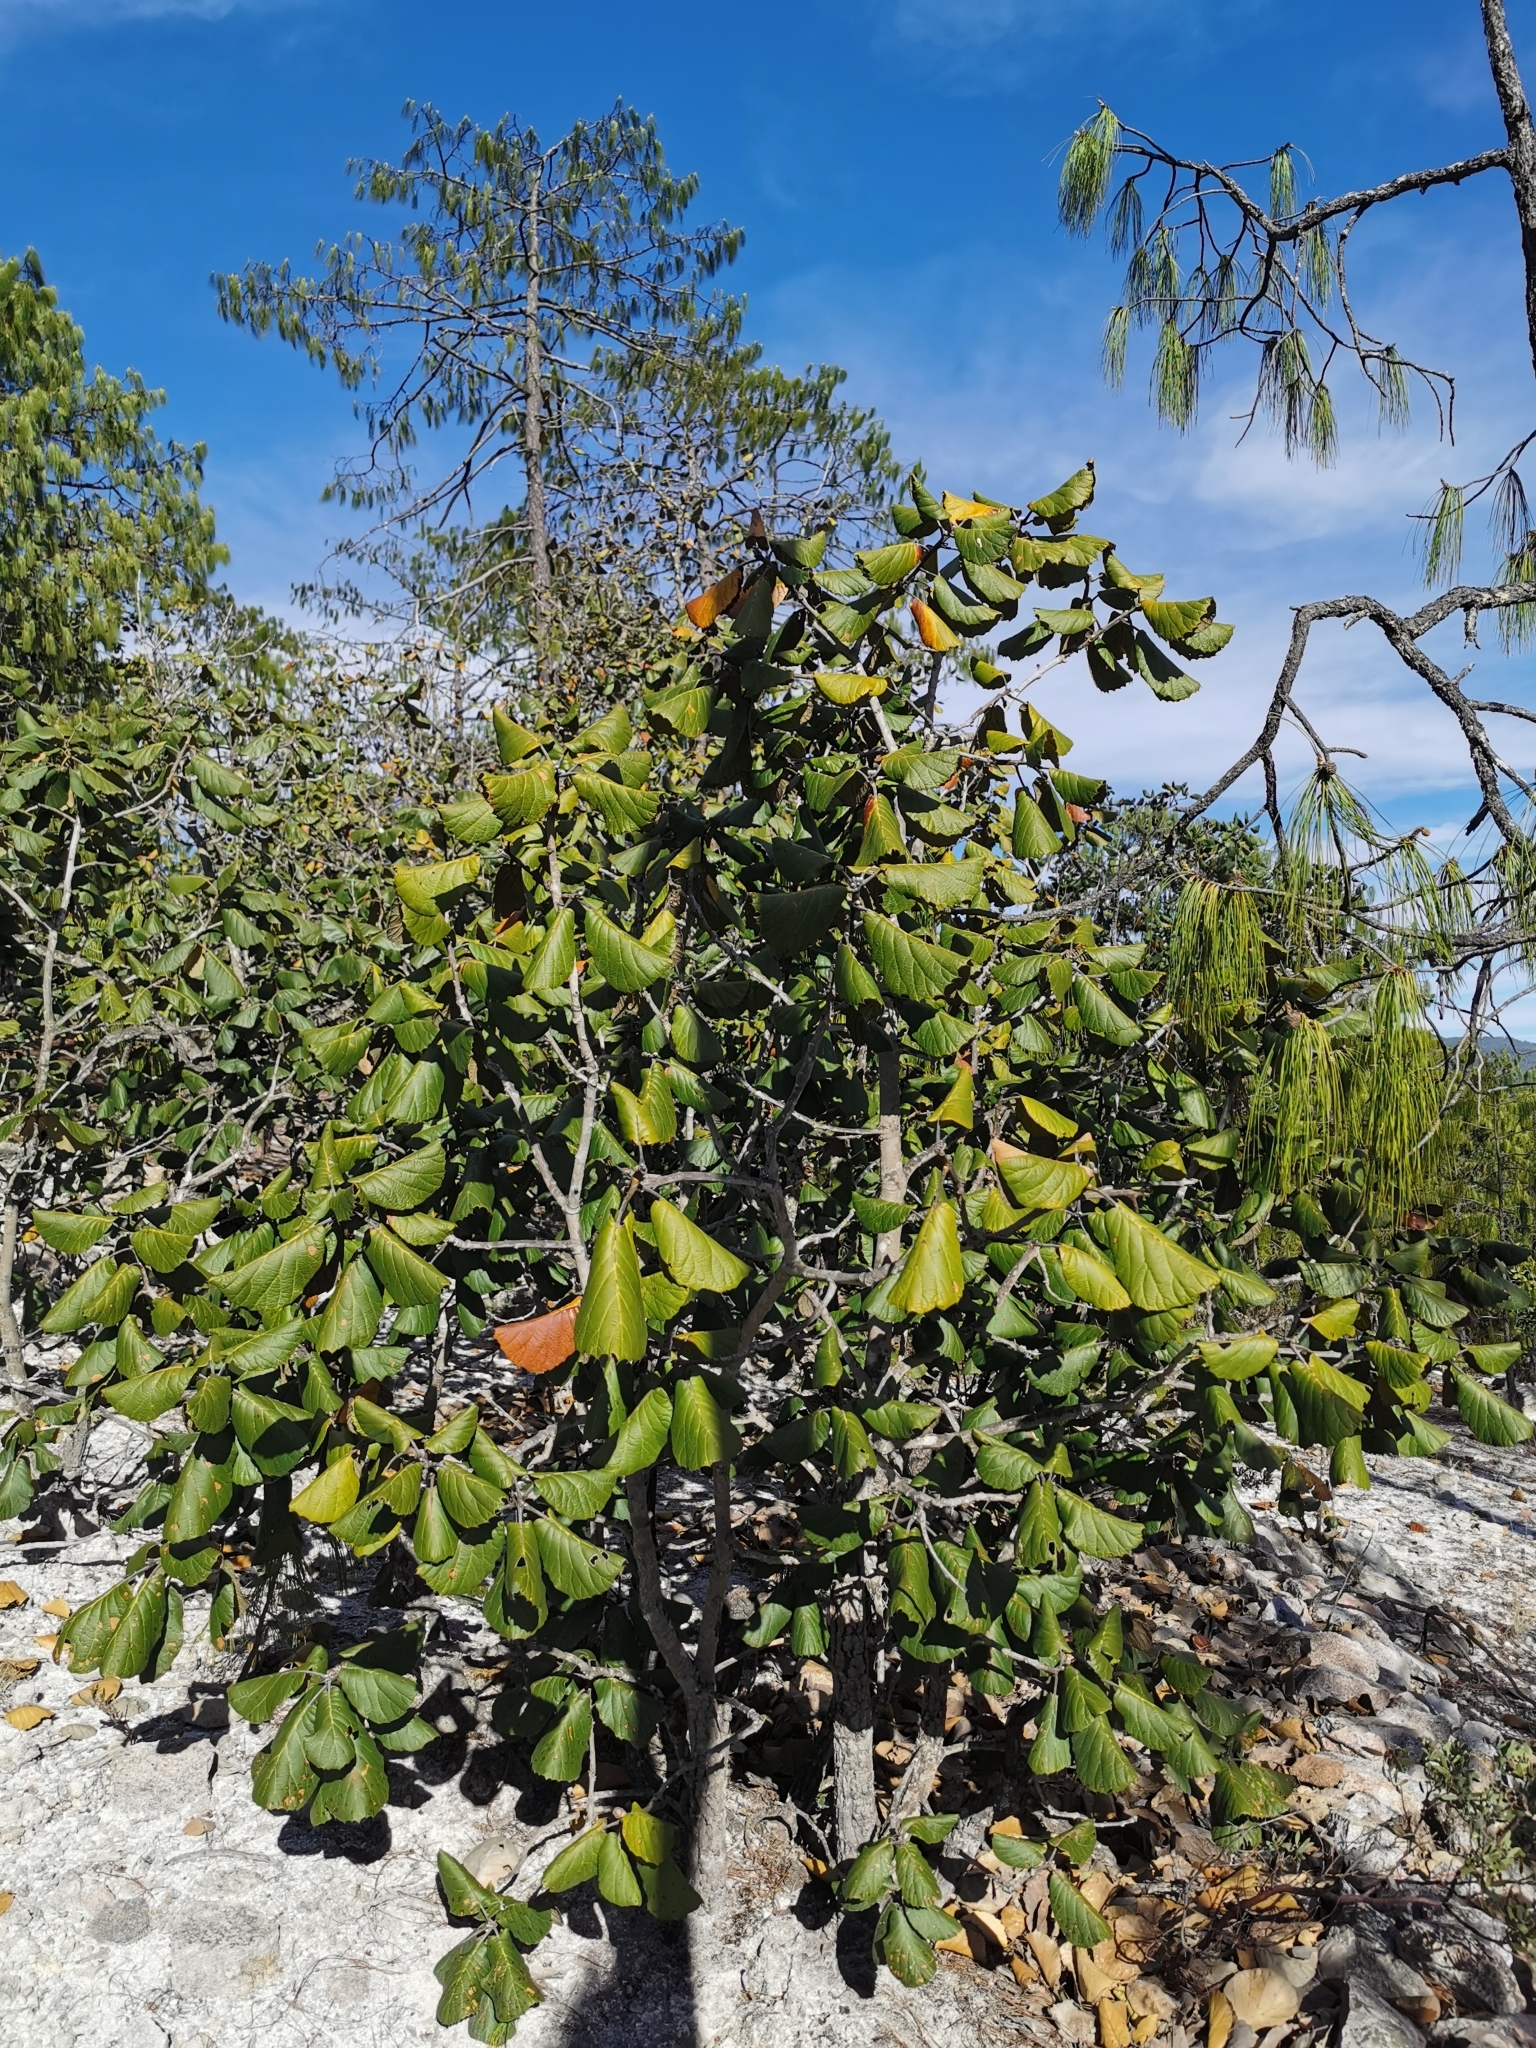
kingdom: Plantae
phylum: Tracheophyta
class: Magnoliopsida
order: Fagales
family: Fagaceae
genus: Quercus
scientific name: Quercus urbani
